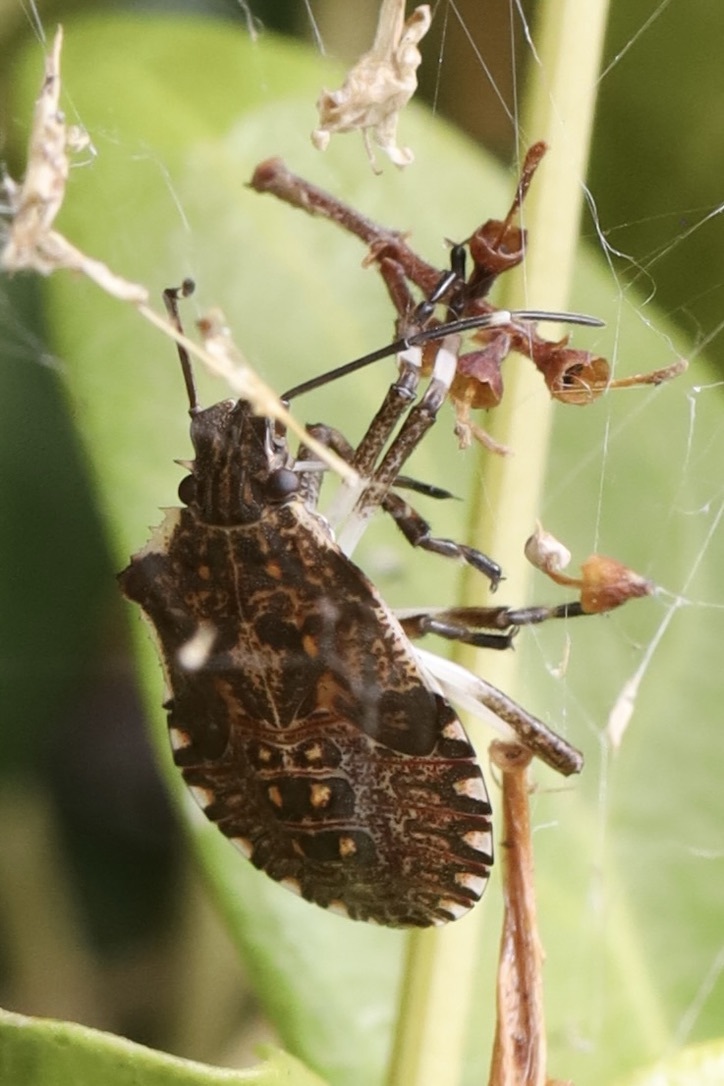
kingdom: Animalia
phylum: Arthropoda
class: Insecta
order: Hemiptera
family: Pentatomidae
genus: Halyomorpha
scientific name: Halyomorpha halys
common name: Brown marmorated stink bug
